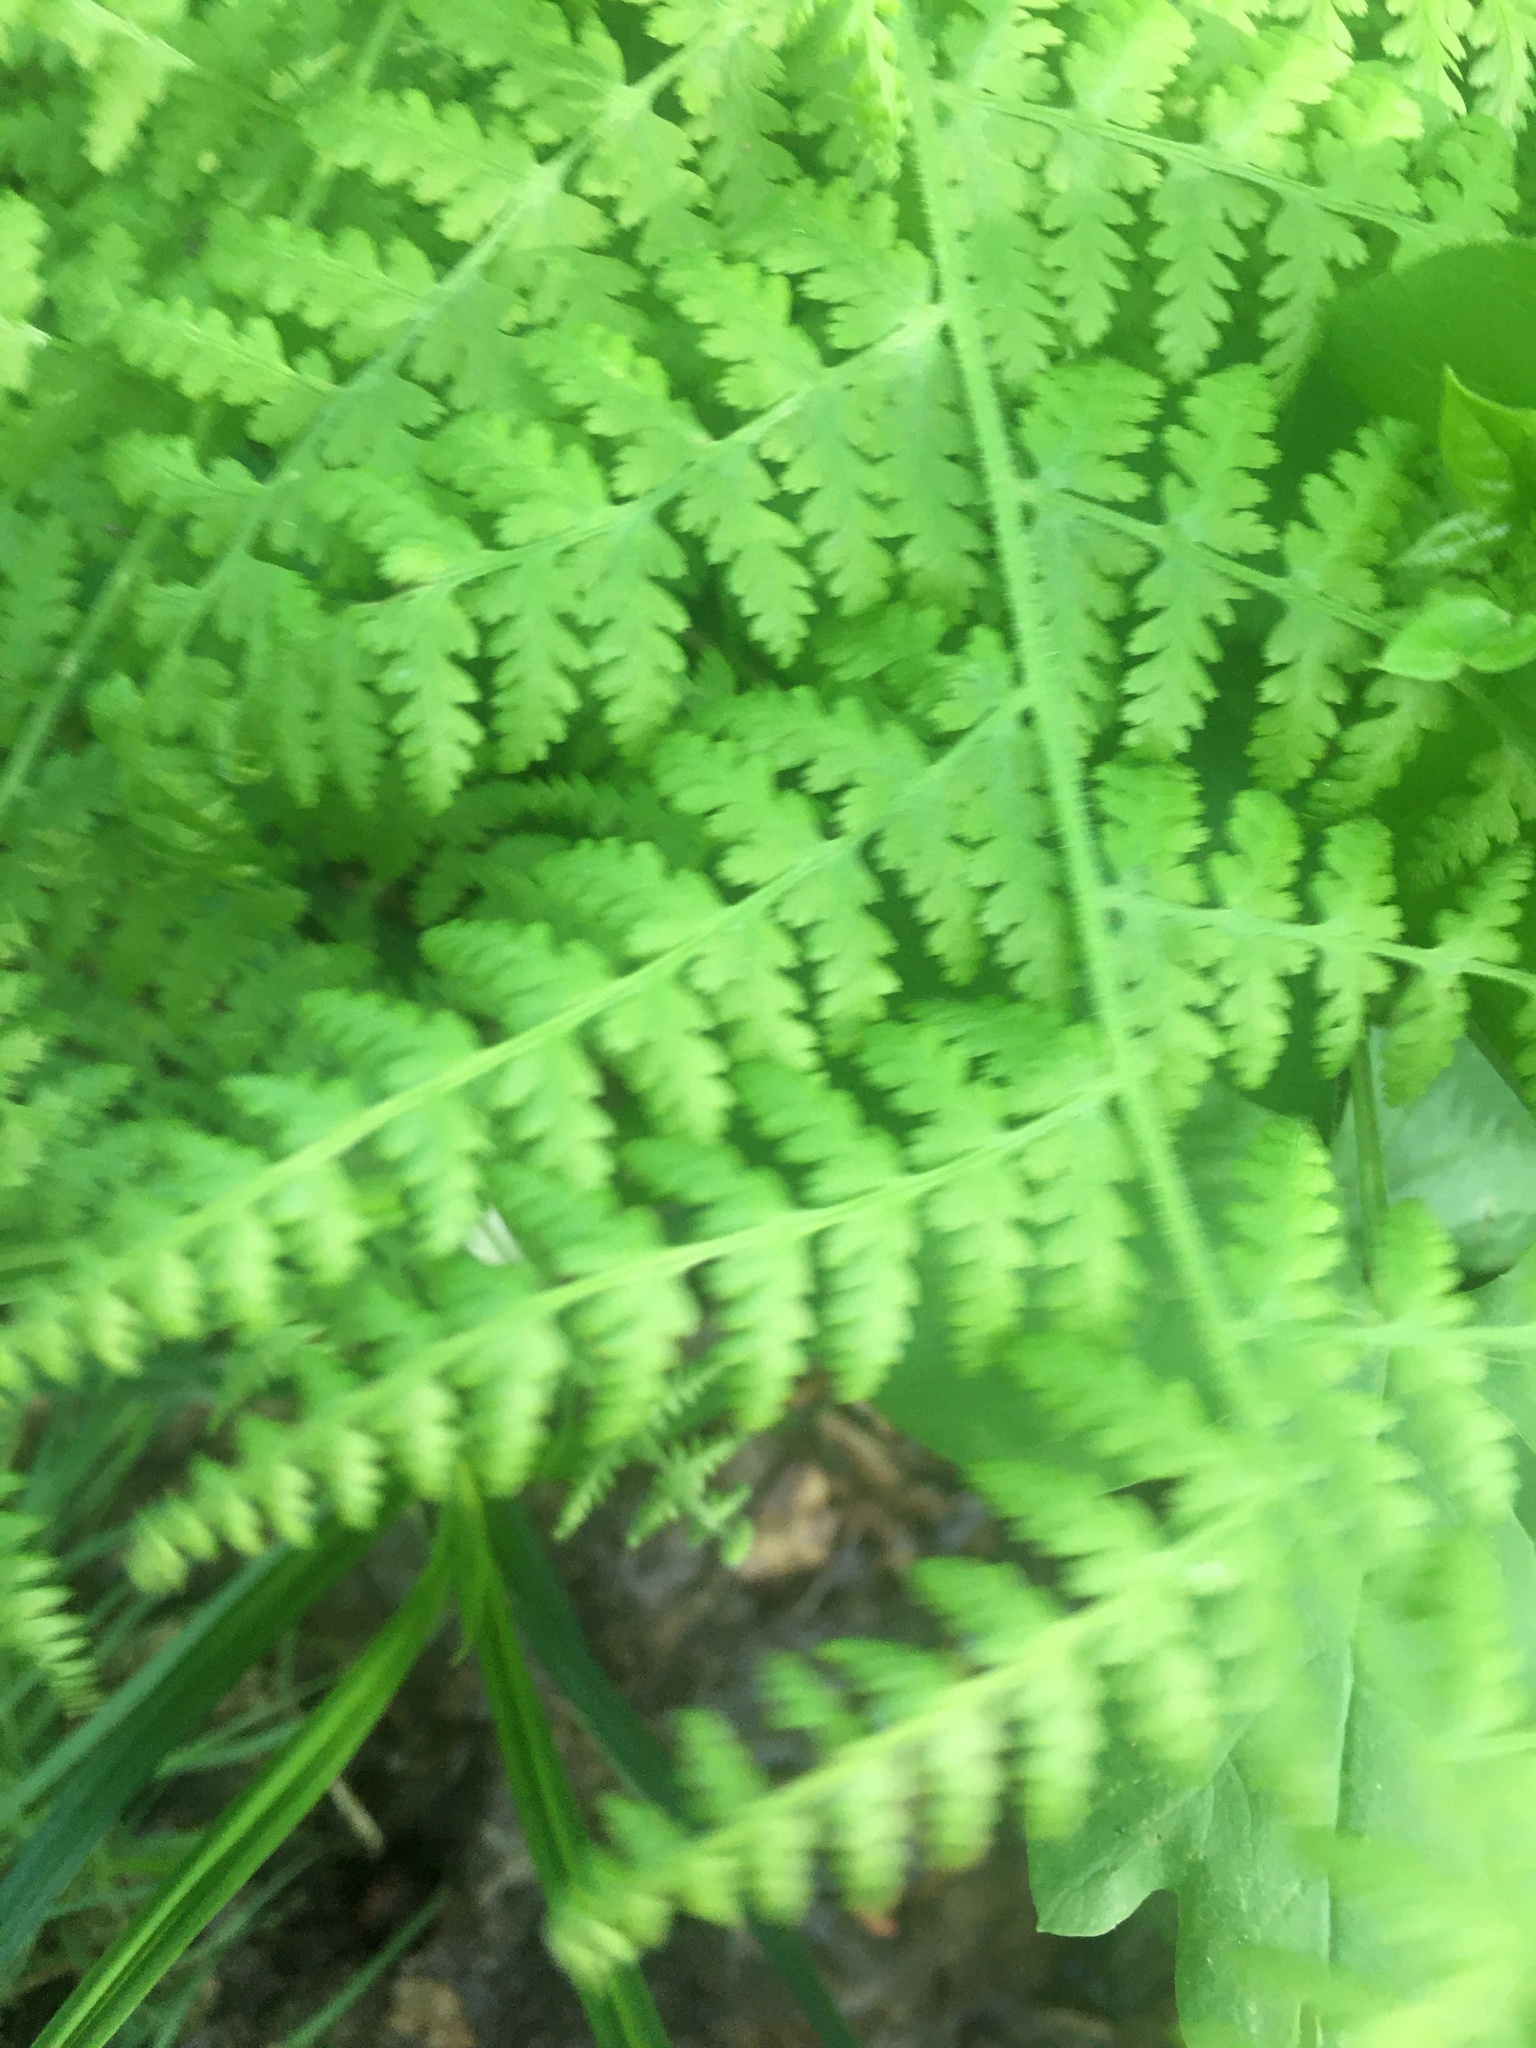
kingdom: Plantae
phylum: Tracheophyta
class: Polypodiopsida
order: Polypodiales
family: Dennstaedtiaceae
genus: Sitobolium
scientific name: Sitobolium punctilobum
